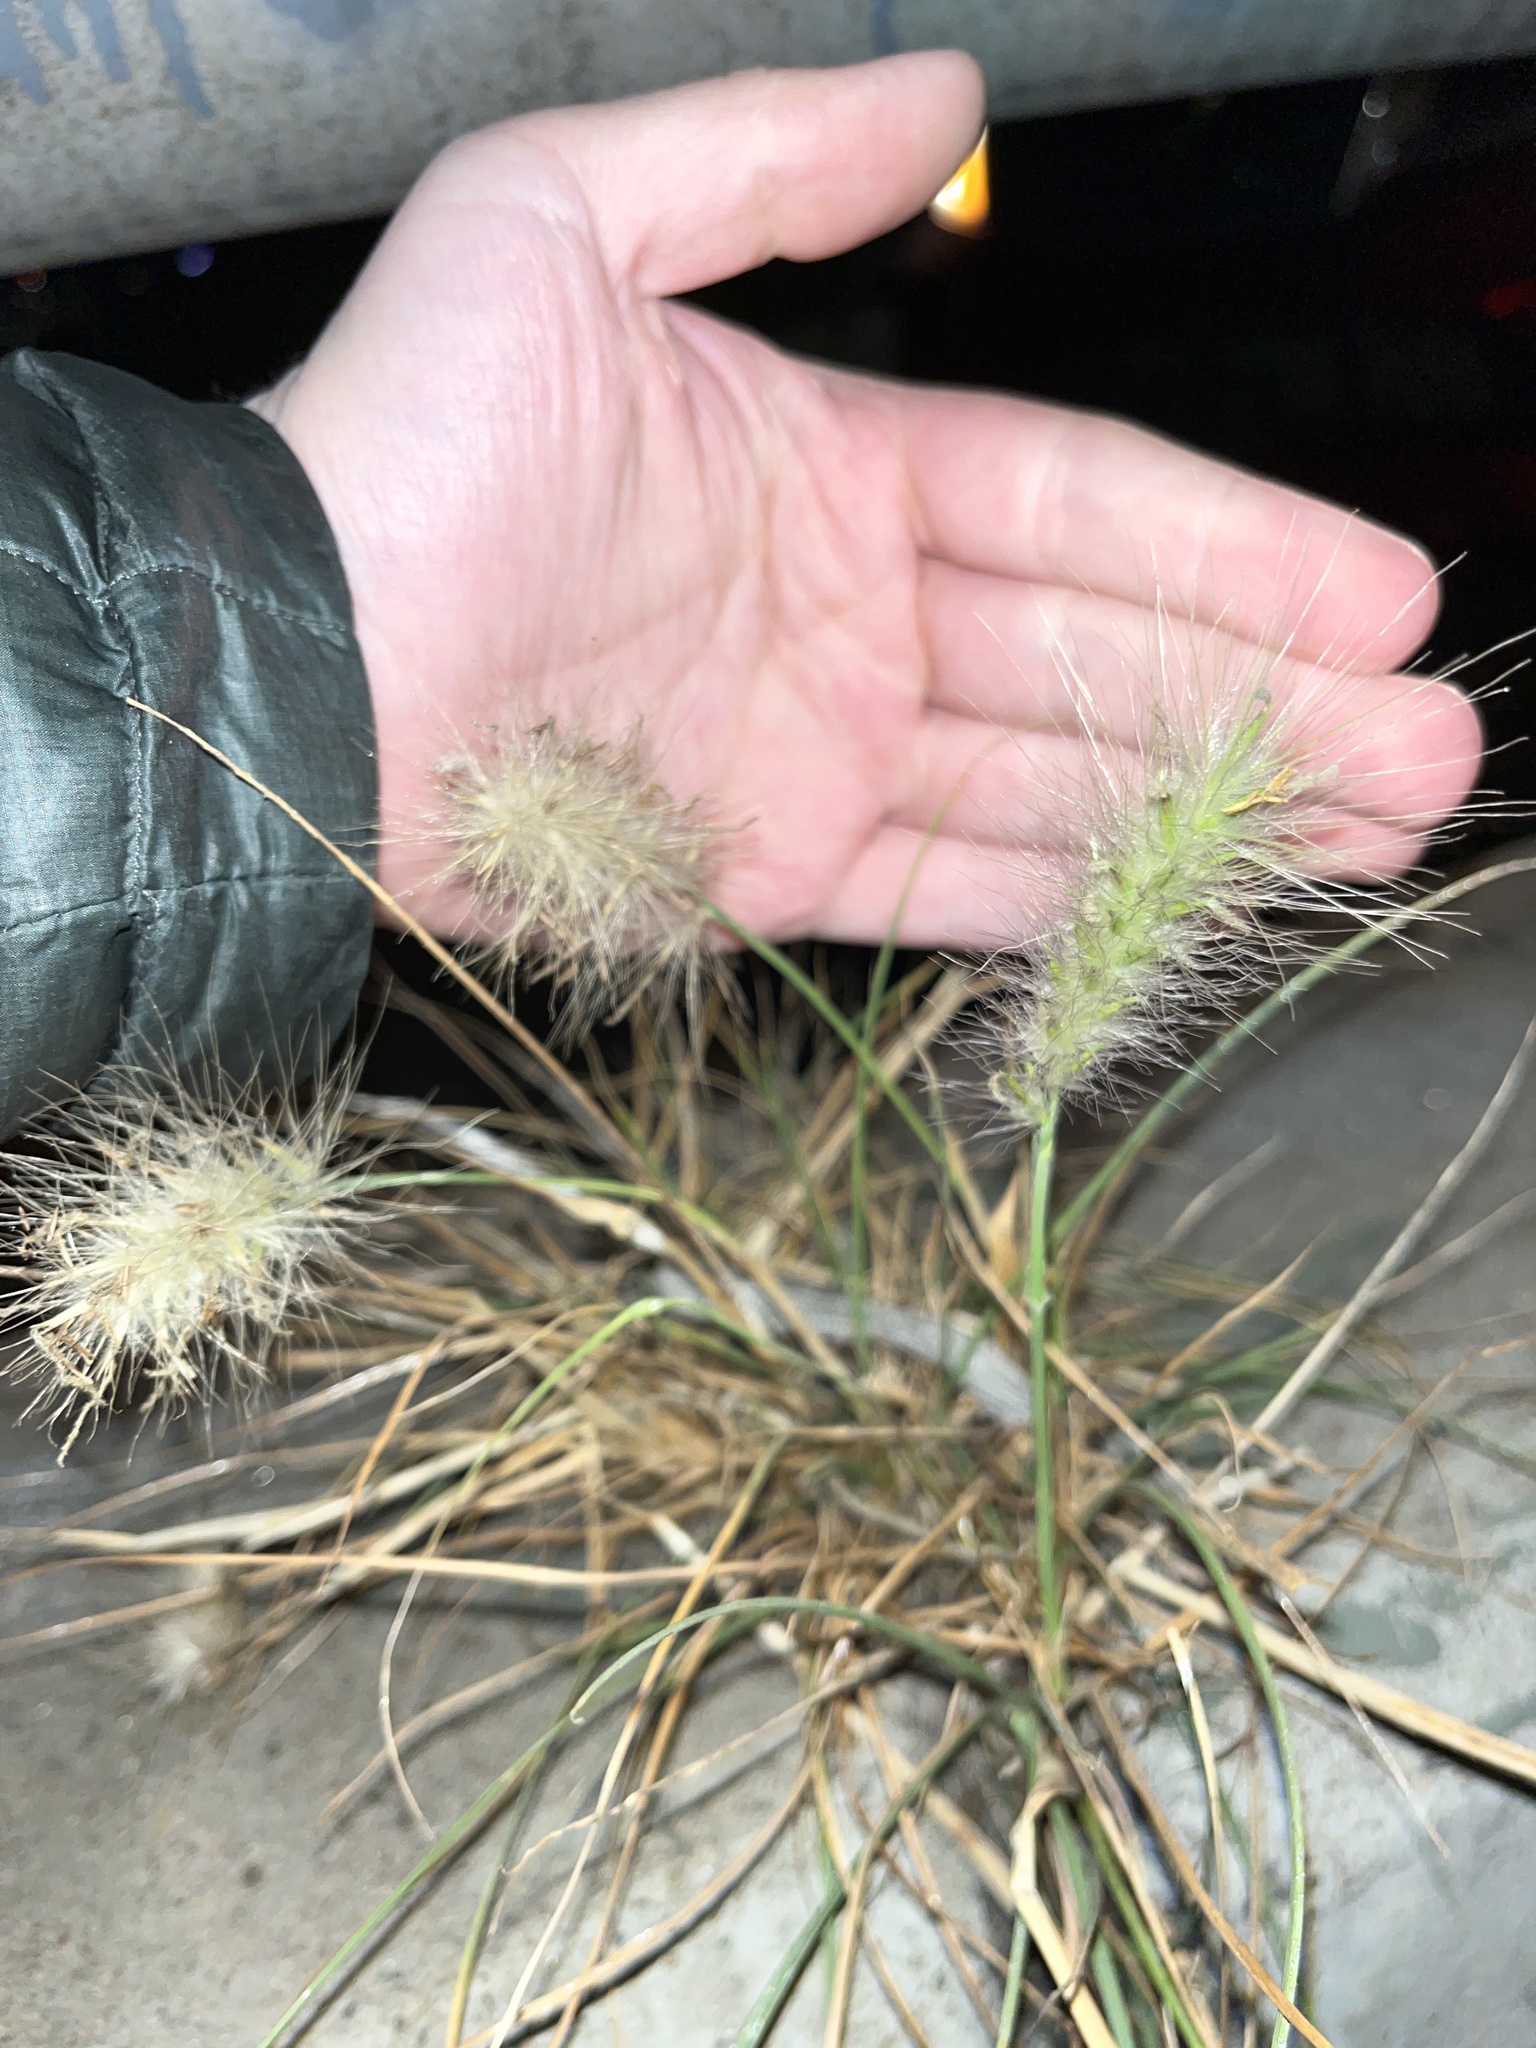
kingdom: Plantae
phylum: Tracheophyta
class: Liliopsida
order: Poales
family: Poaceae
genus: Cenchrus
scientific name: Cenchrus longisetus
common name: Feathertop
